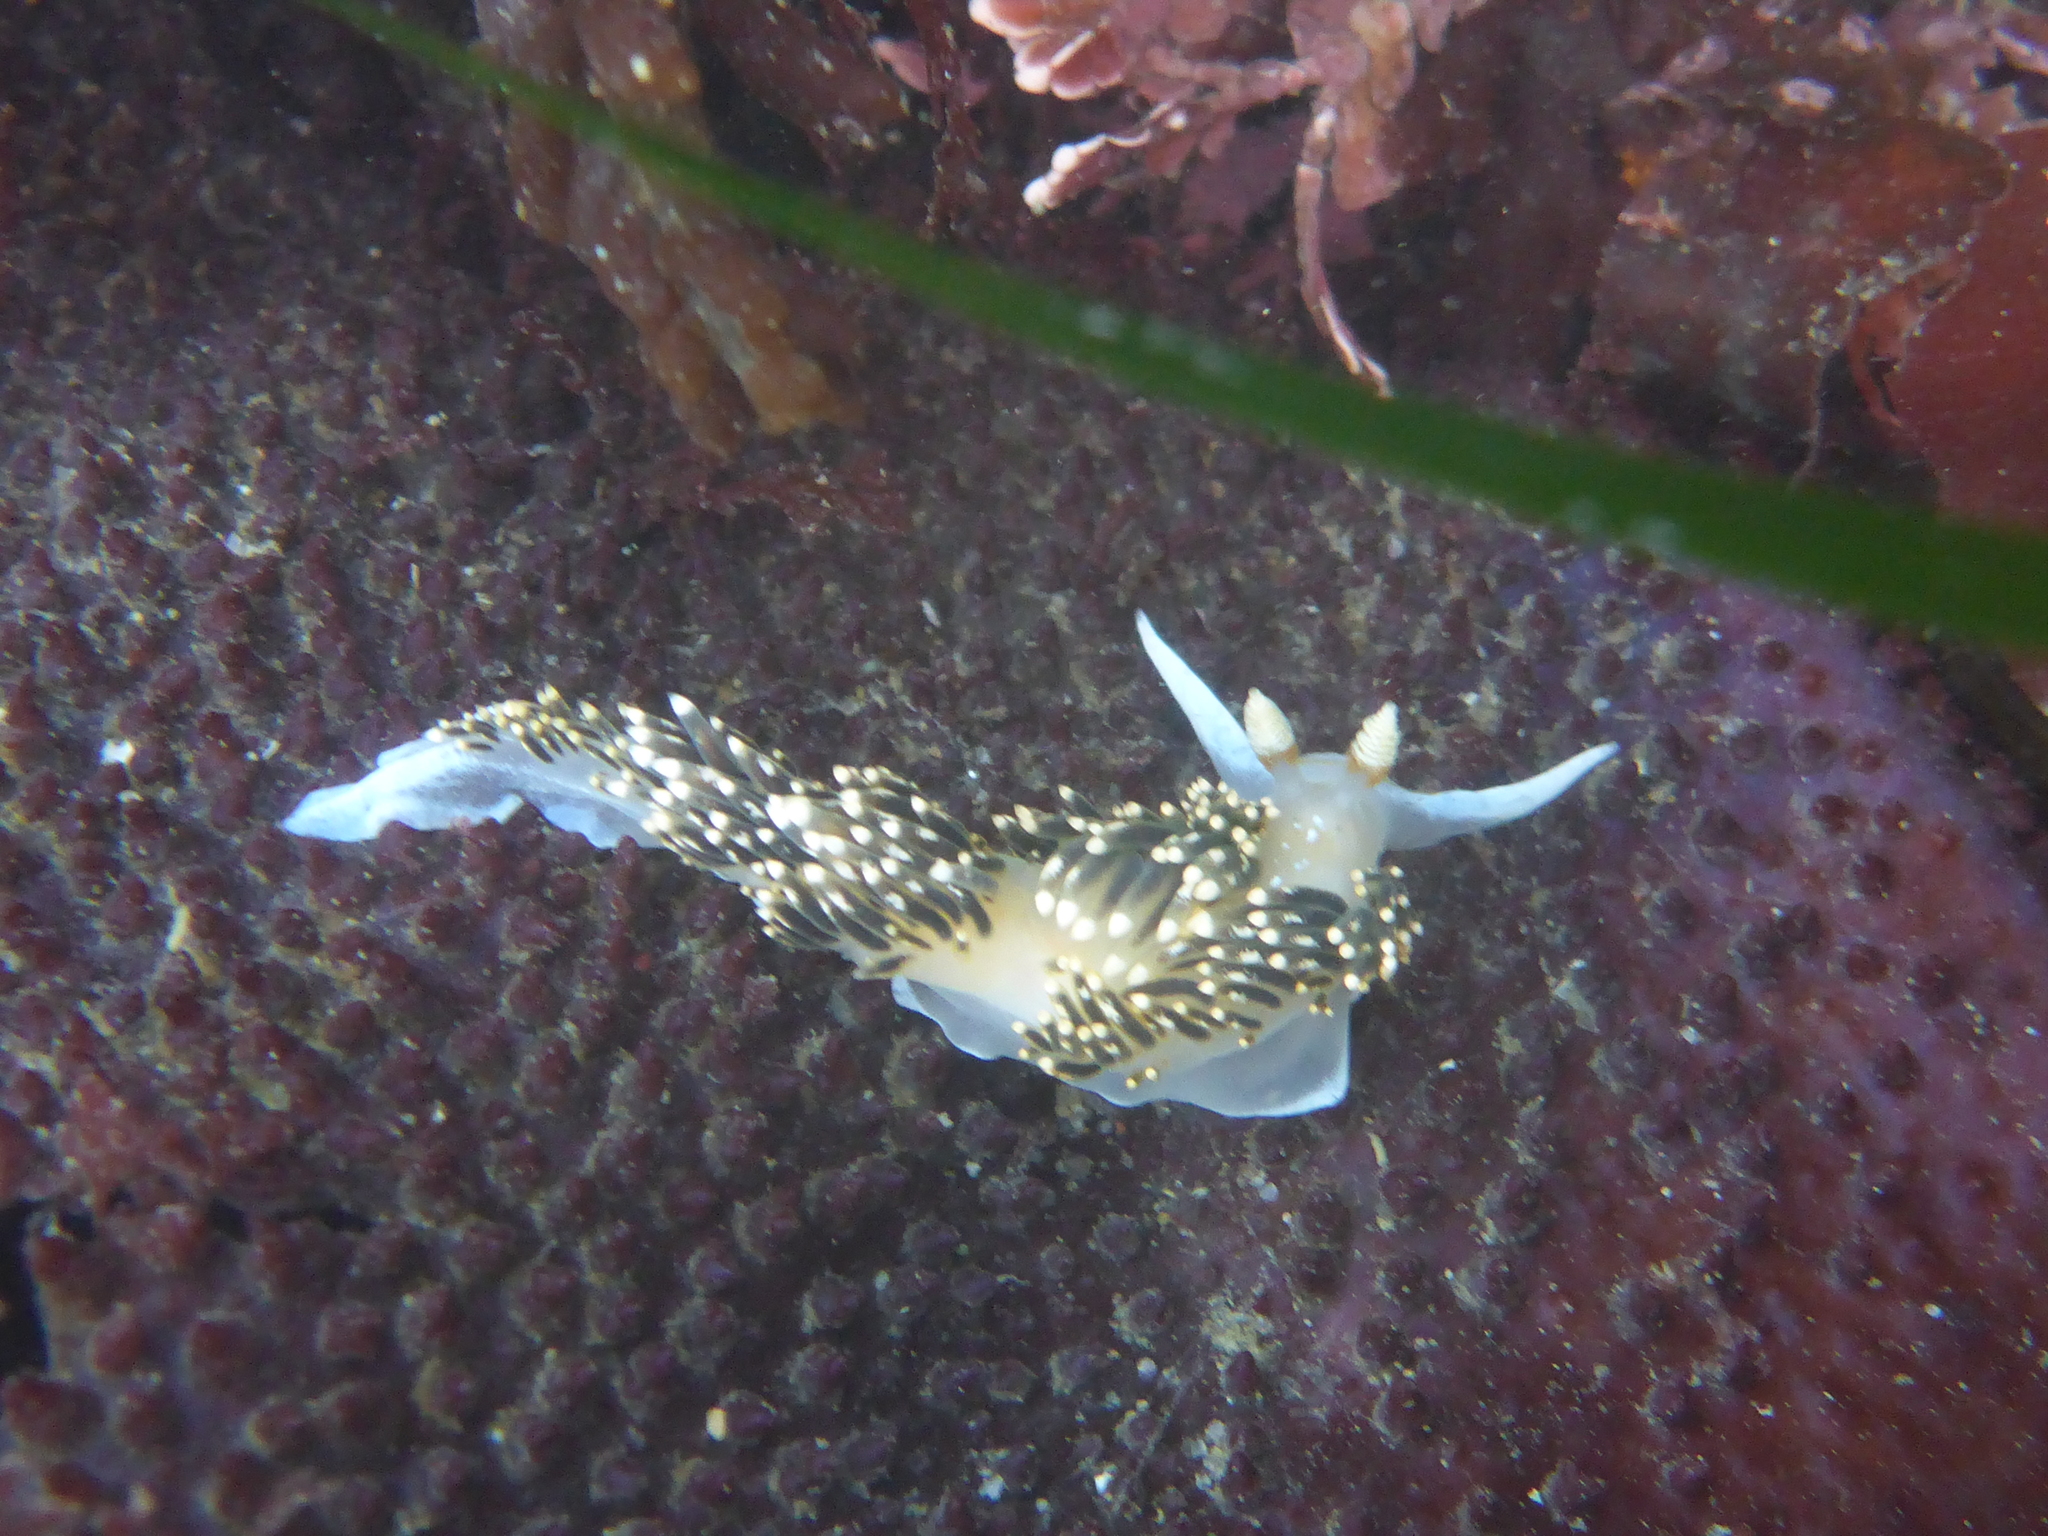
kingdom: Animalia
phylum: Mollusca
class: Gastropoda
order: Nudibranchia
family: Facelinidae
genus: Phidiana
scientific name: Phidiana hiltoni
